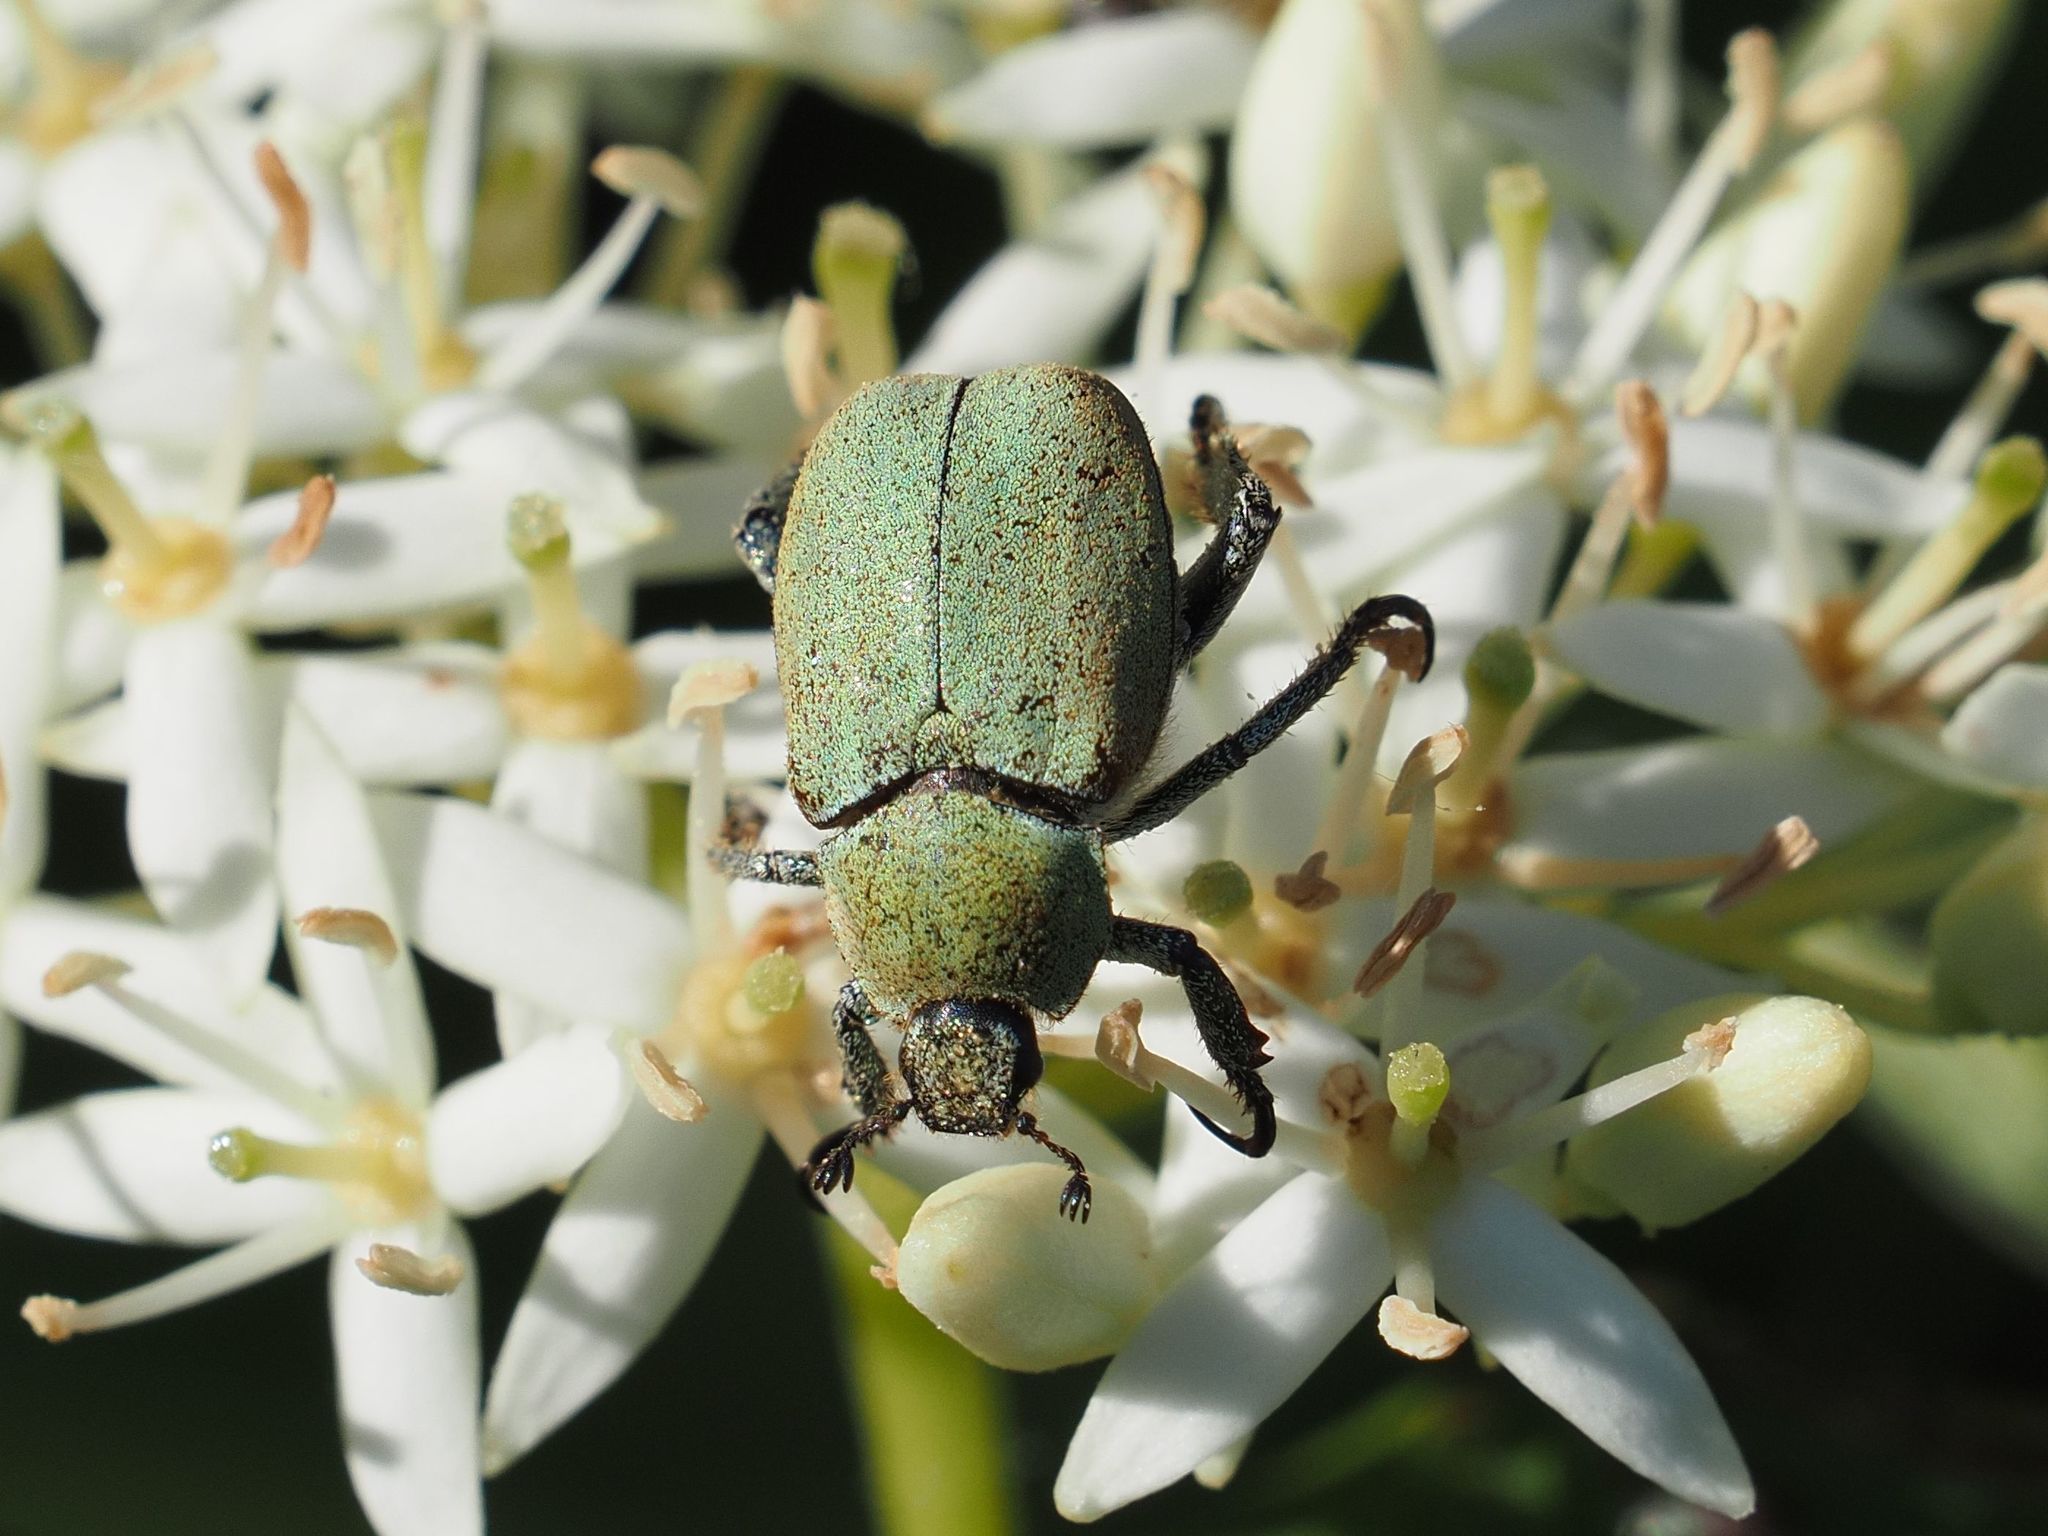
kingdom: Animalia
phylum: Arthropoda
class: Insecta
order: Coleoptera
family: Scarabaeidae
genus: Hoplia
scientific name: Hoplia argentea
